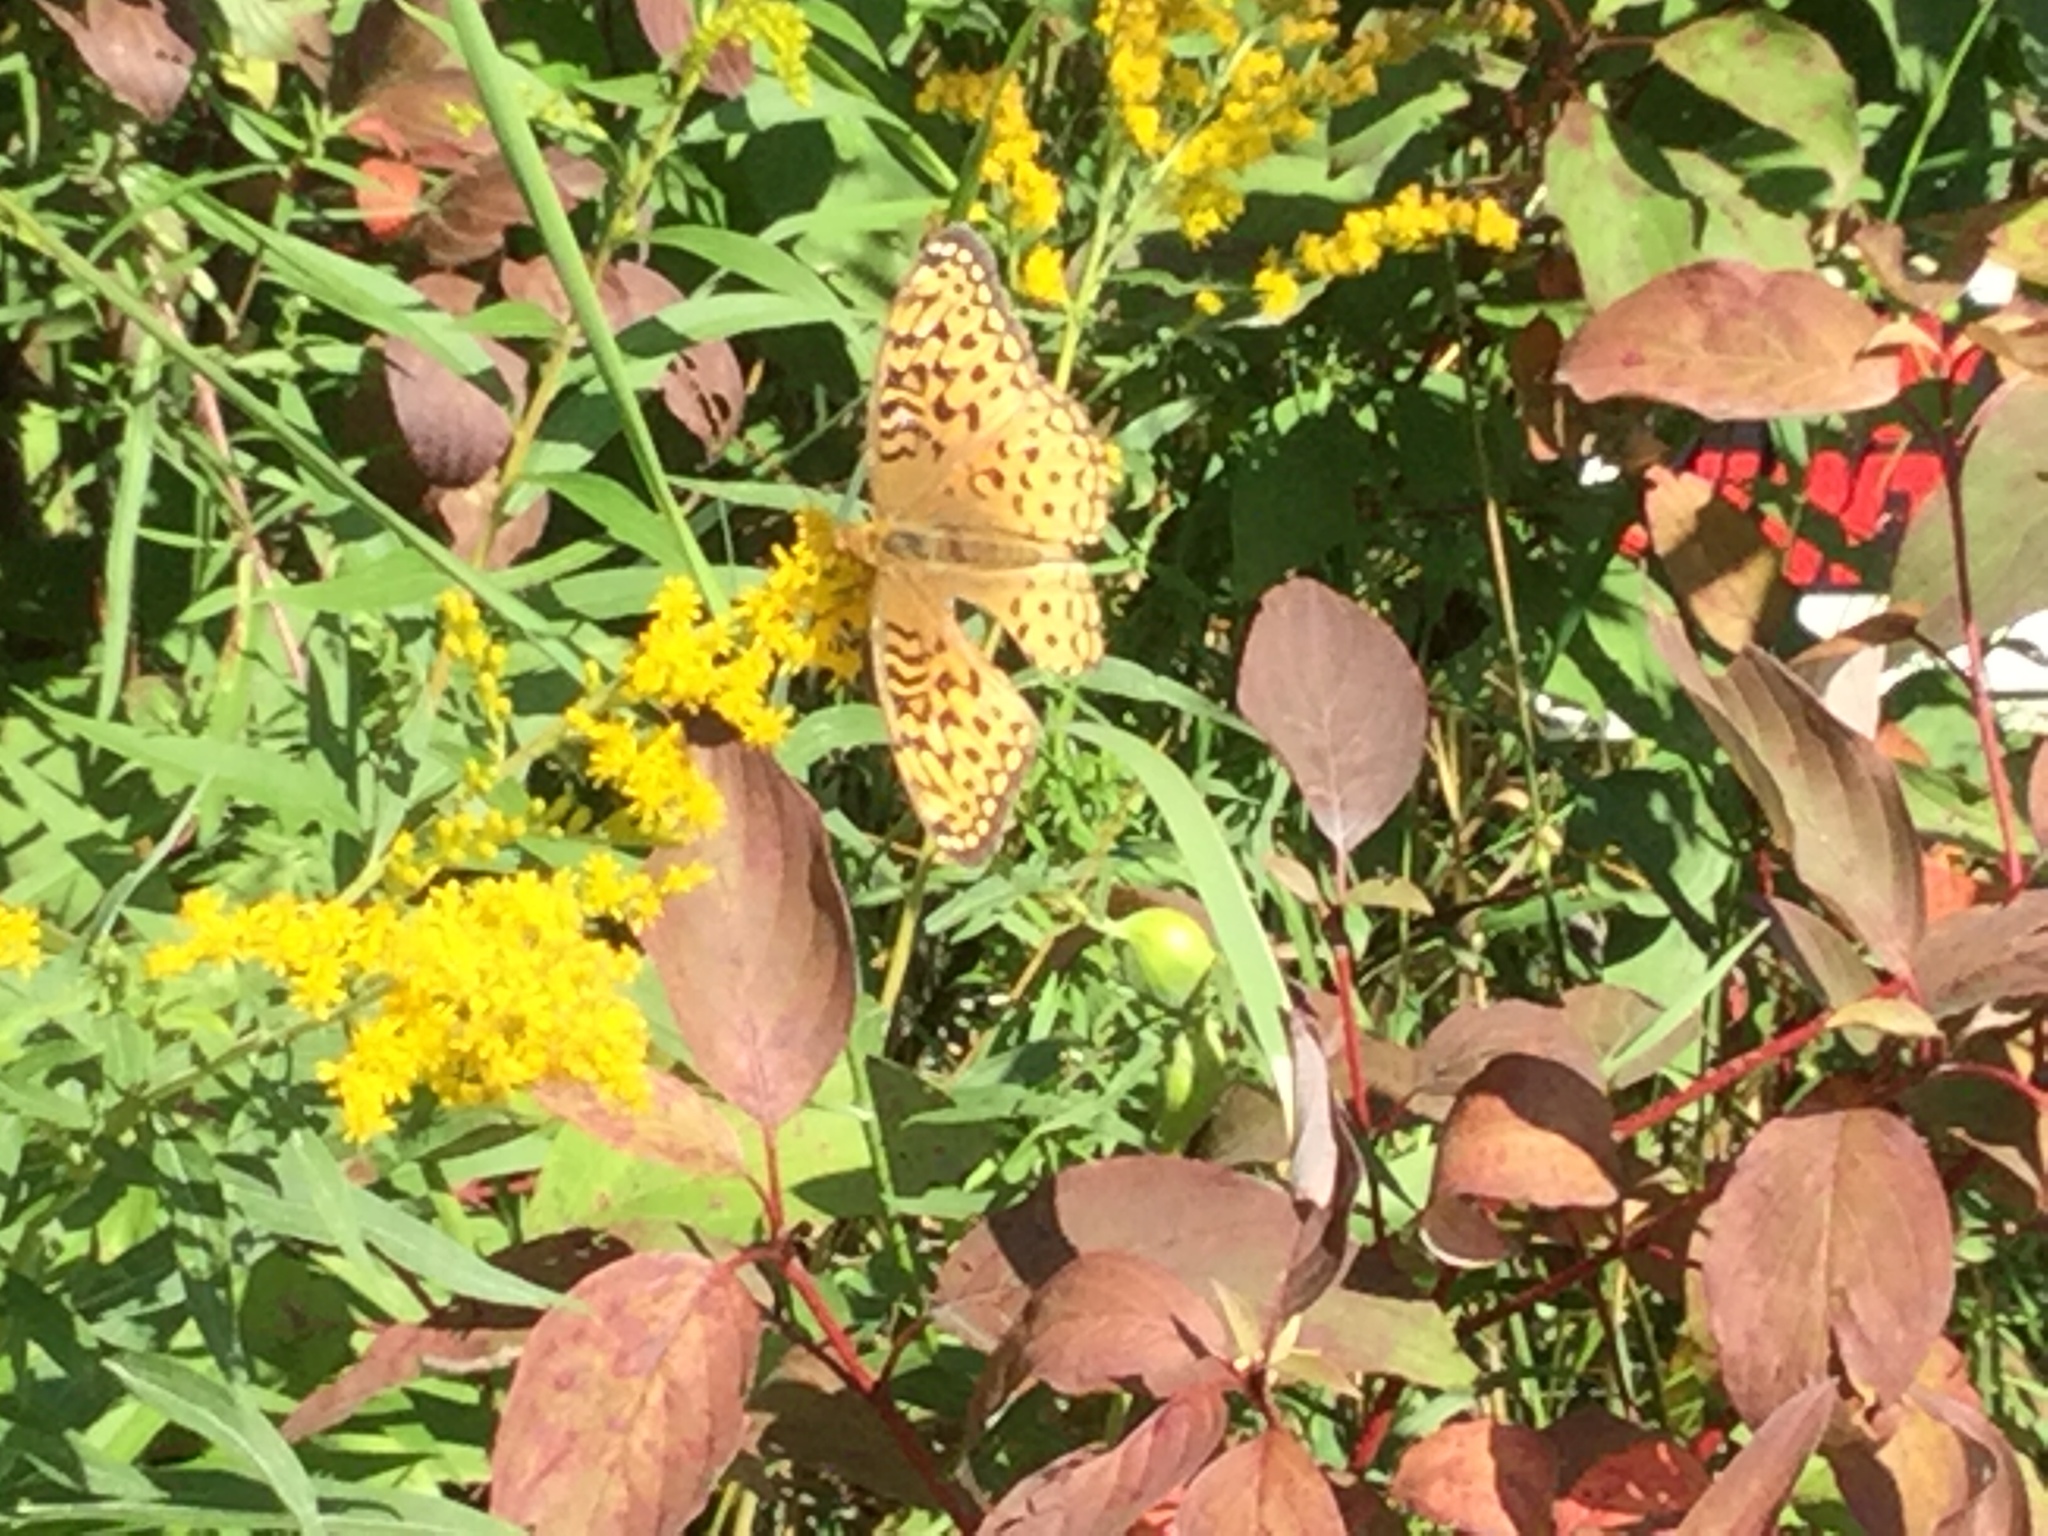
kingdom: Animalia
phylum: Arthropoda
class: Insecta
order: Lepidoptera
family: Nymphalidae
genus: Speyeria
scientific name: Speyeria aphrodite
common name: Aphrodite friitllary
